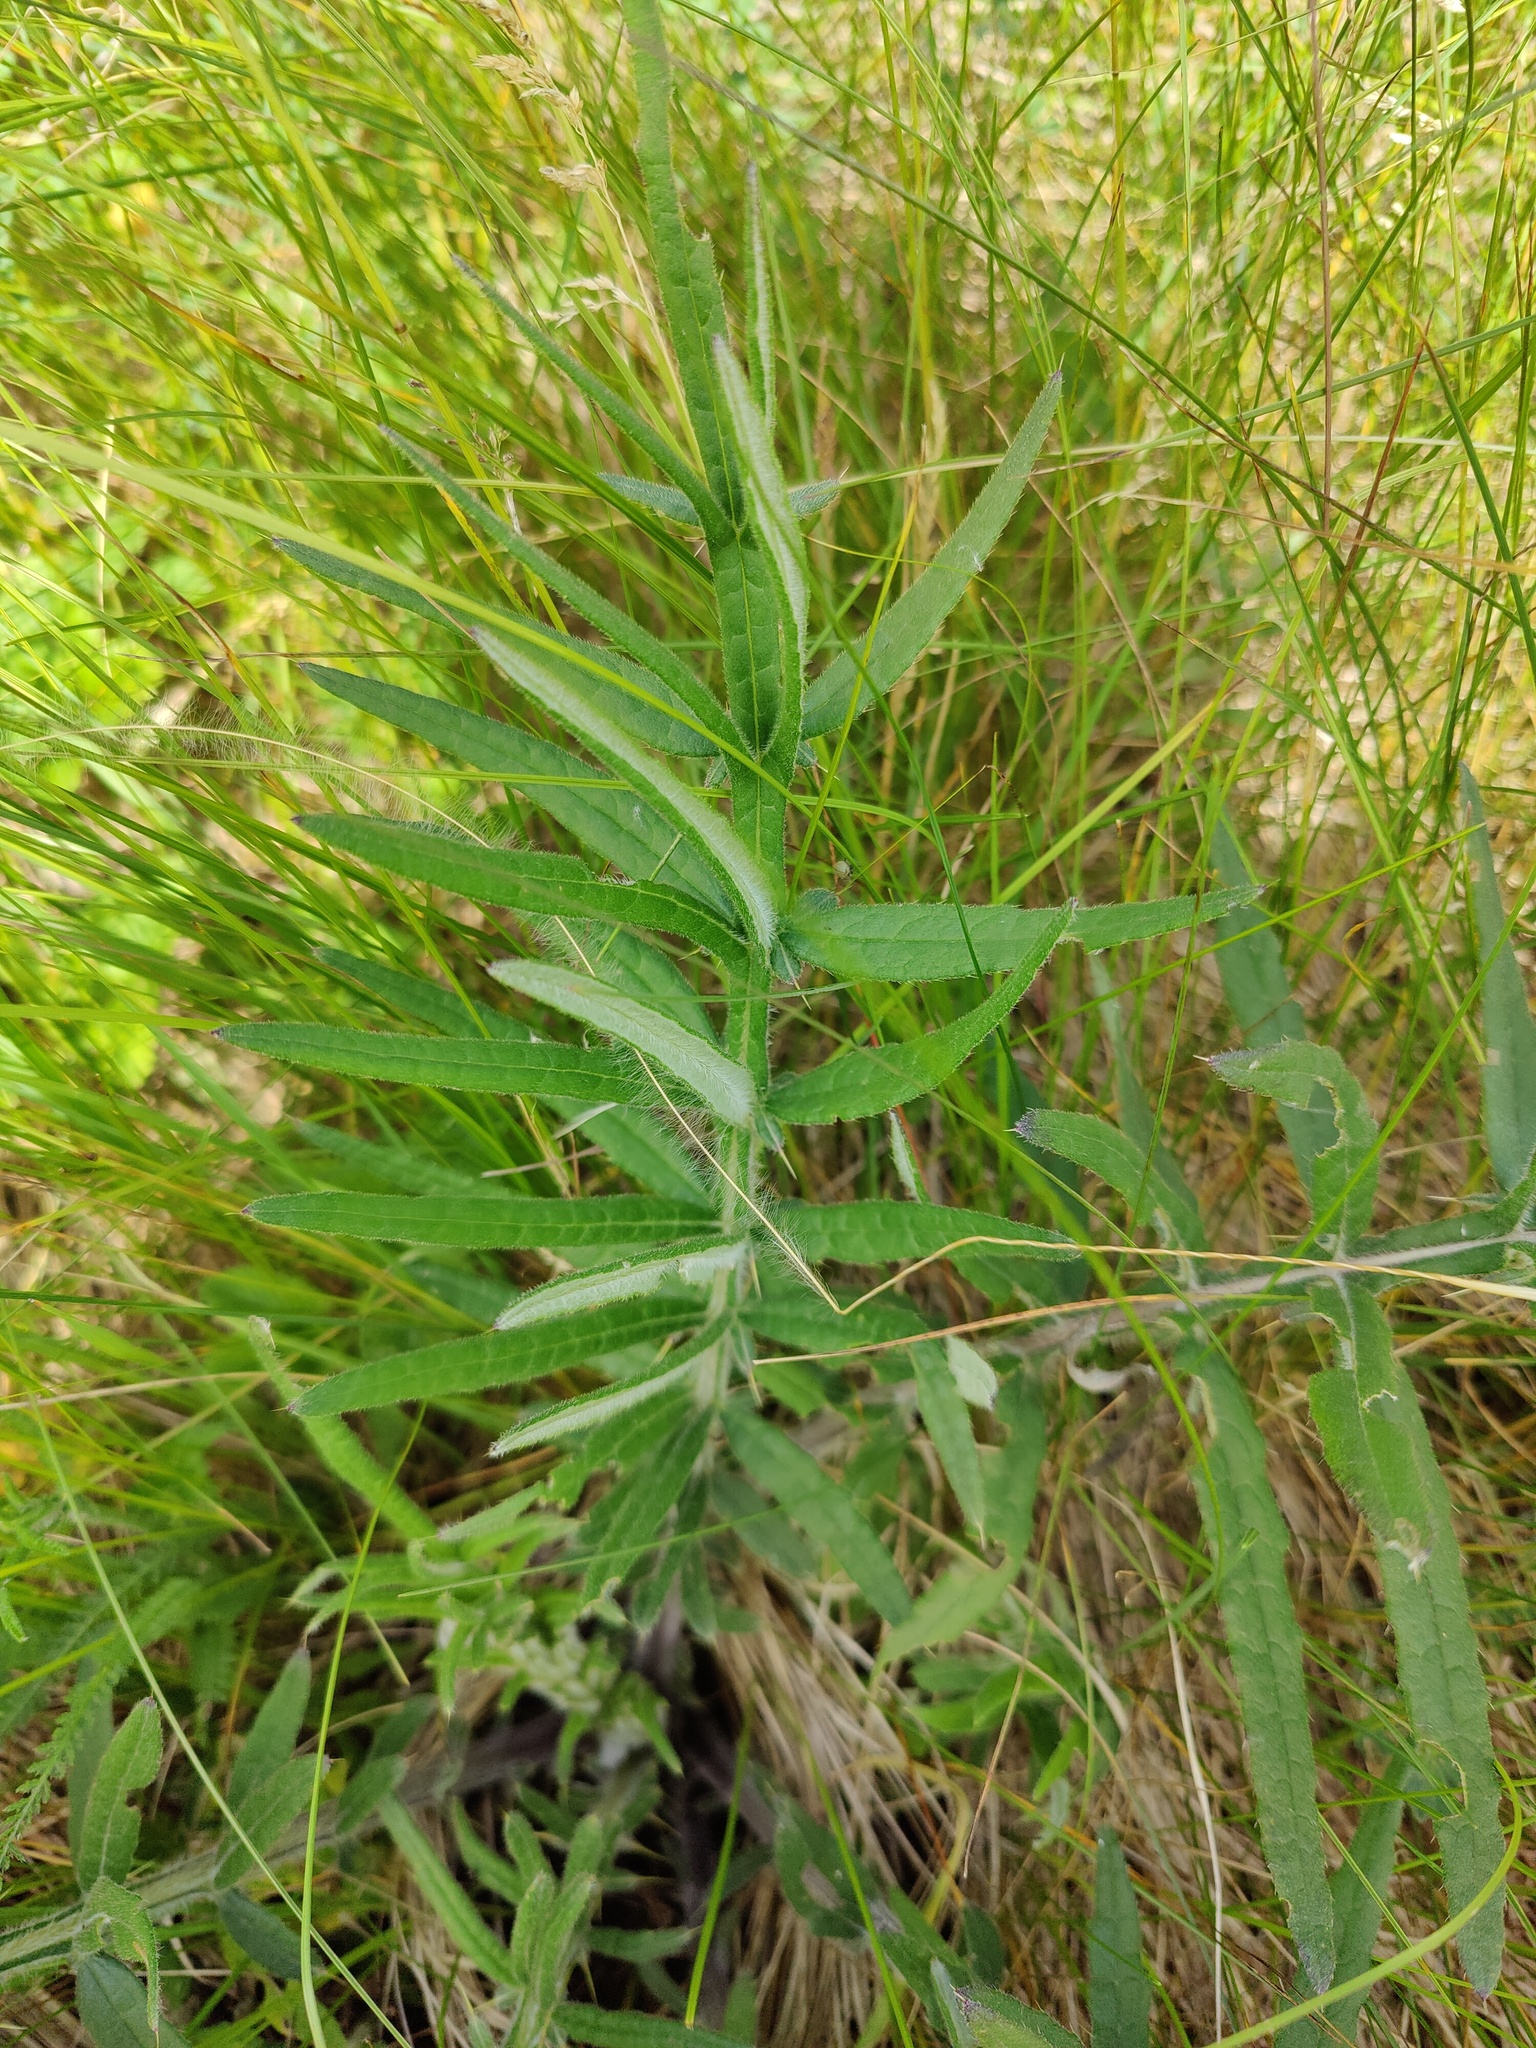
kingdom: Plantae
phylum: Tracheophyta
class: Magnoliopsida
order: Asterales
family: Asteraceae
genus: Lophiolepis
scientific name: Lophiolepis decussata
